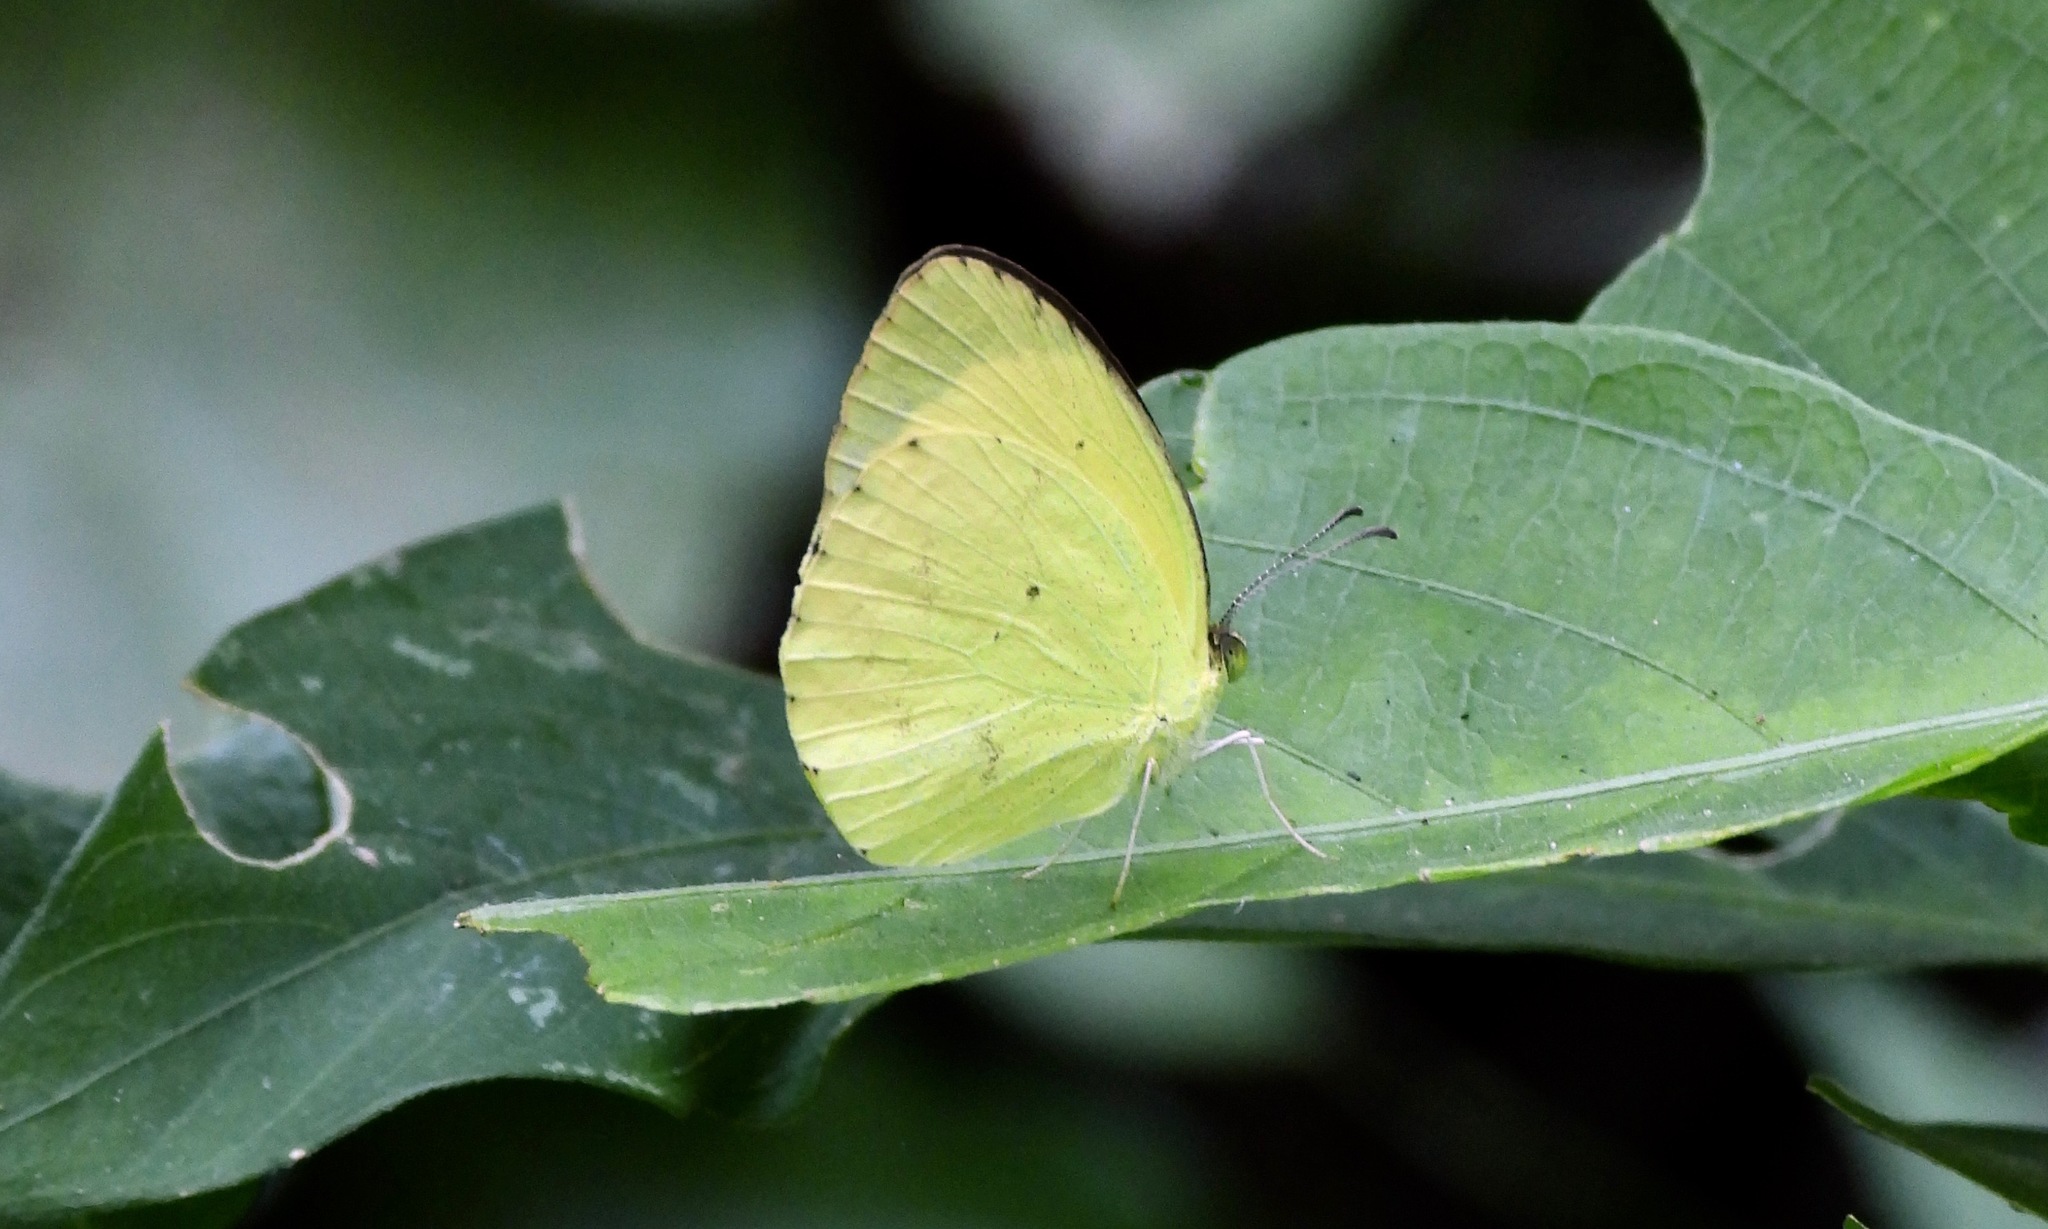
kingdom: Animalia
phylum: Arthropoda
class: Insecta
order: Lepidoptera
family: Pieridae
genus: Pyrisitia
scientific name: Pyrisitia nise
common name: Mimosa yellow
